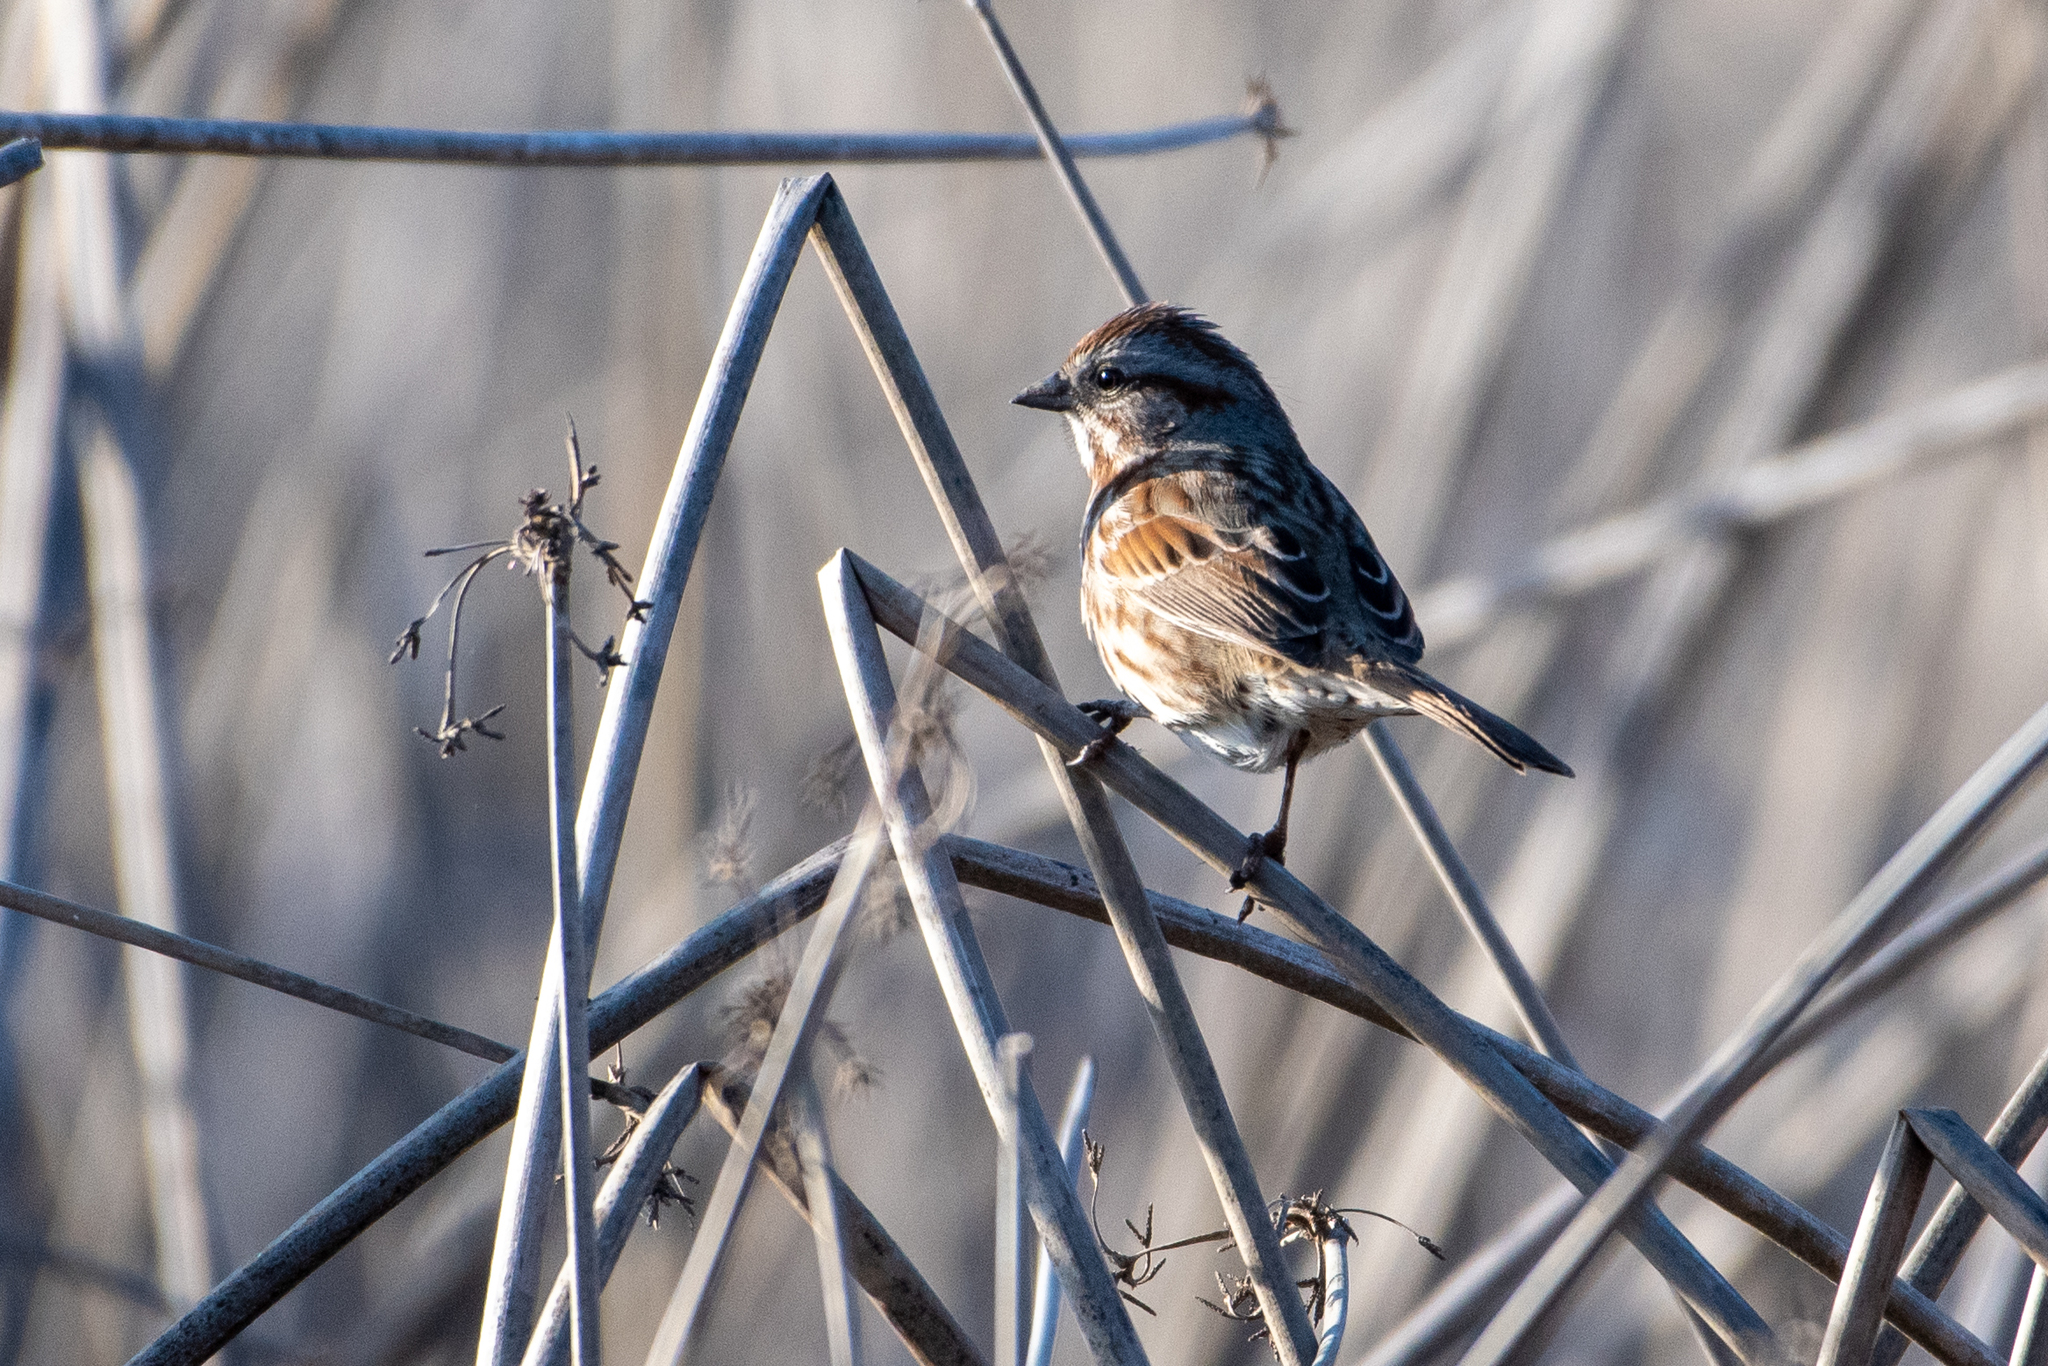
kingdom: Animalia
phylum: Chordata
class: Aves
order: Passeriformes
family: Passerellidae
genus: Melospiza
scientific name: Melospiza melodia
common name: Song sparrow
